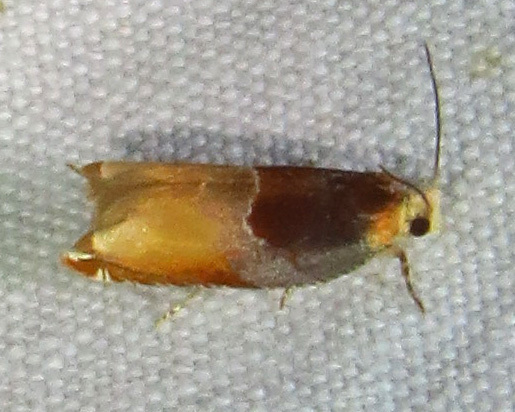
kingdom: Animalia
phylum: Arthropoda
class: Insecta
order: Lepidoptera
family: Tortricidae
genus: Ancylis
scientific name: Ancylis divisana
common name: Two-toned ancylis moth
